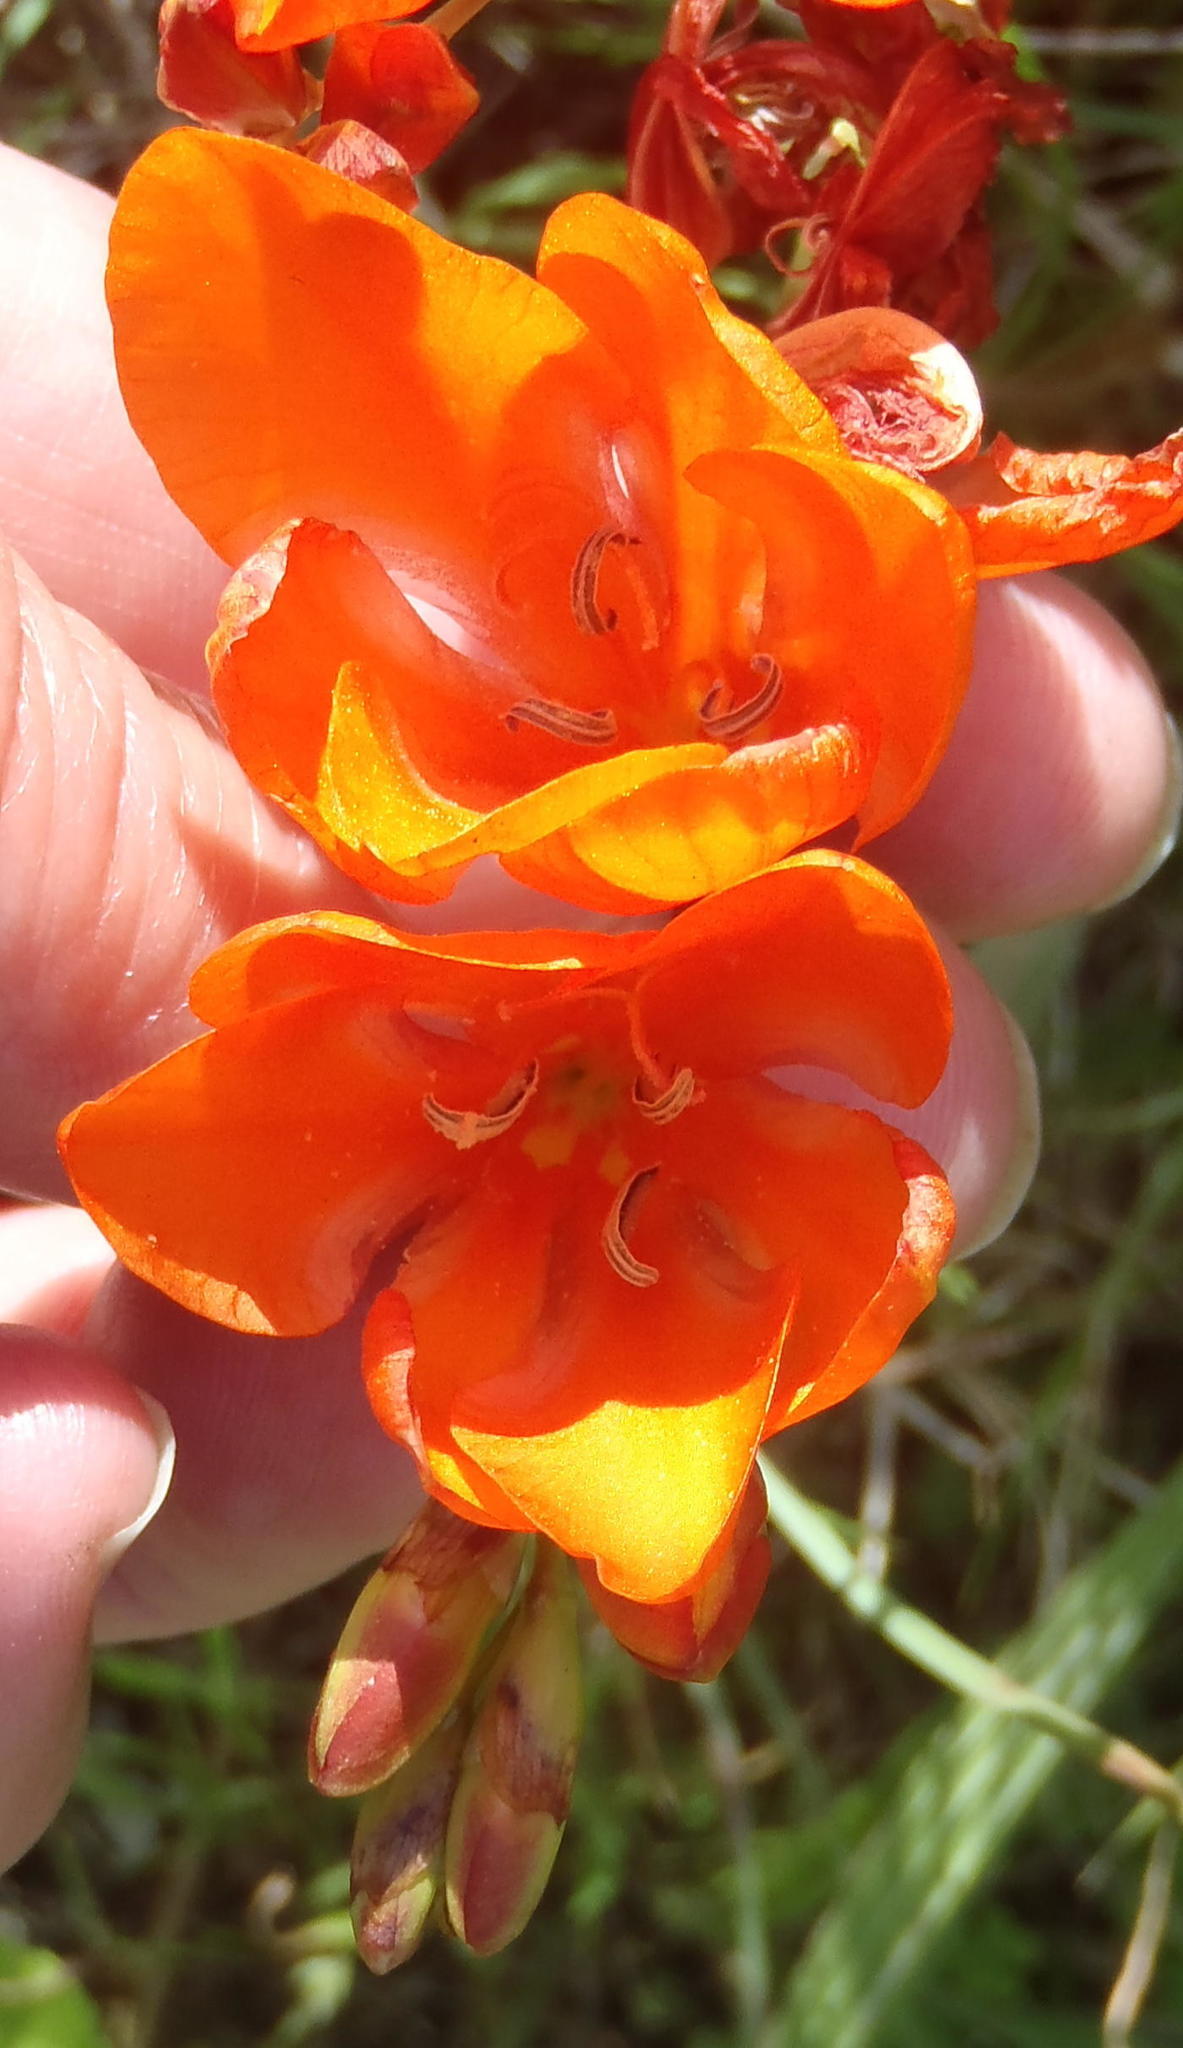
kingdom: Plantae
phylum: Tracheophyta
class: Liliopsida
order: Asparagales
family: Iridaceae
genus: Tritonia
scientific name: Tritonia crocata
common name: Flame-freesia
